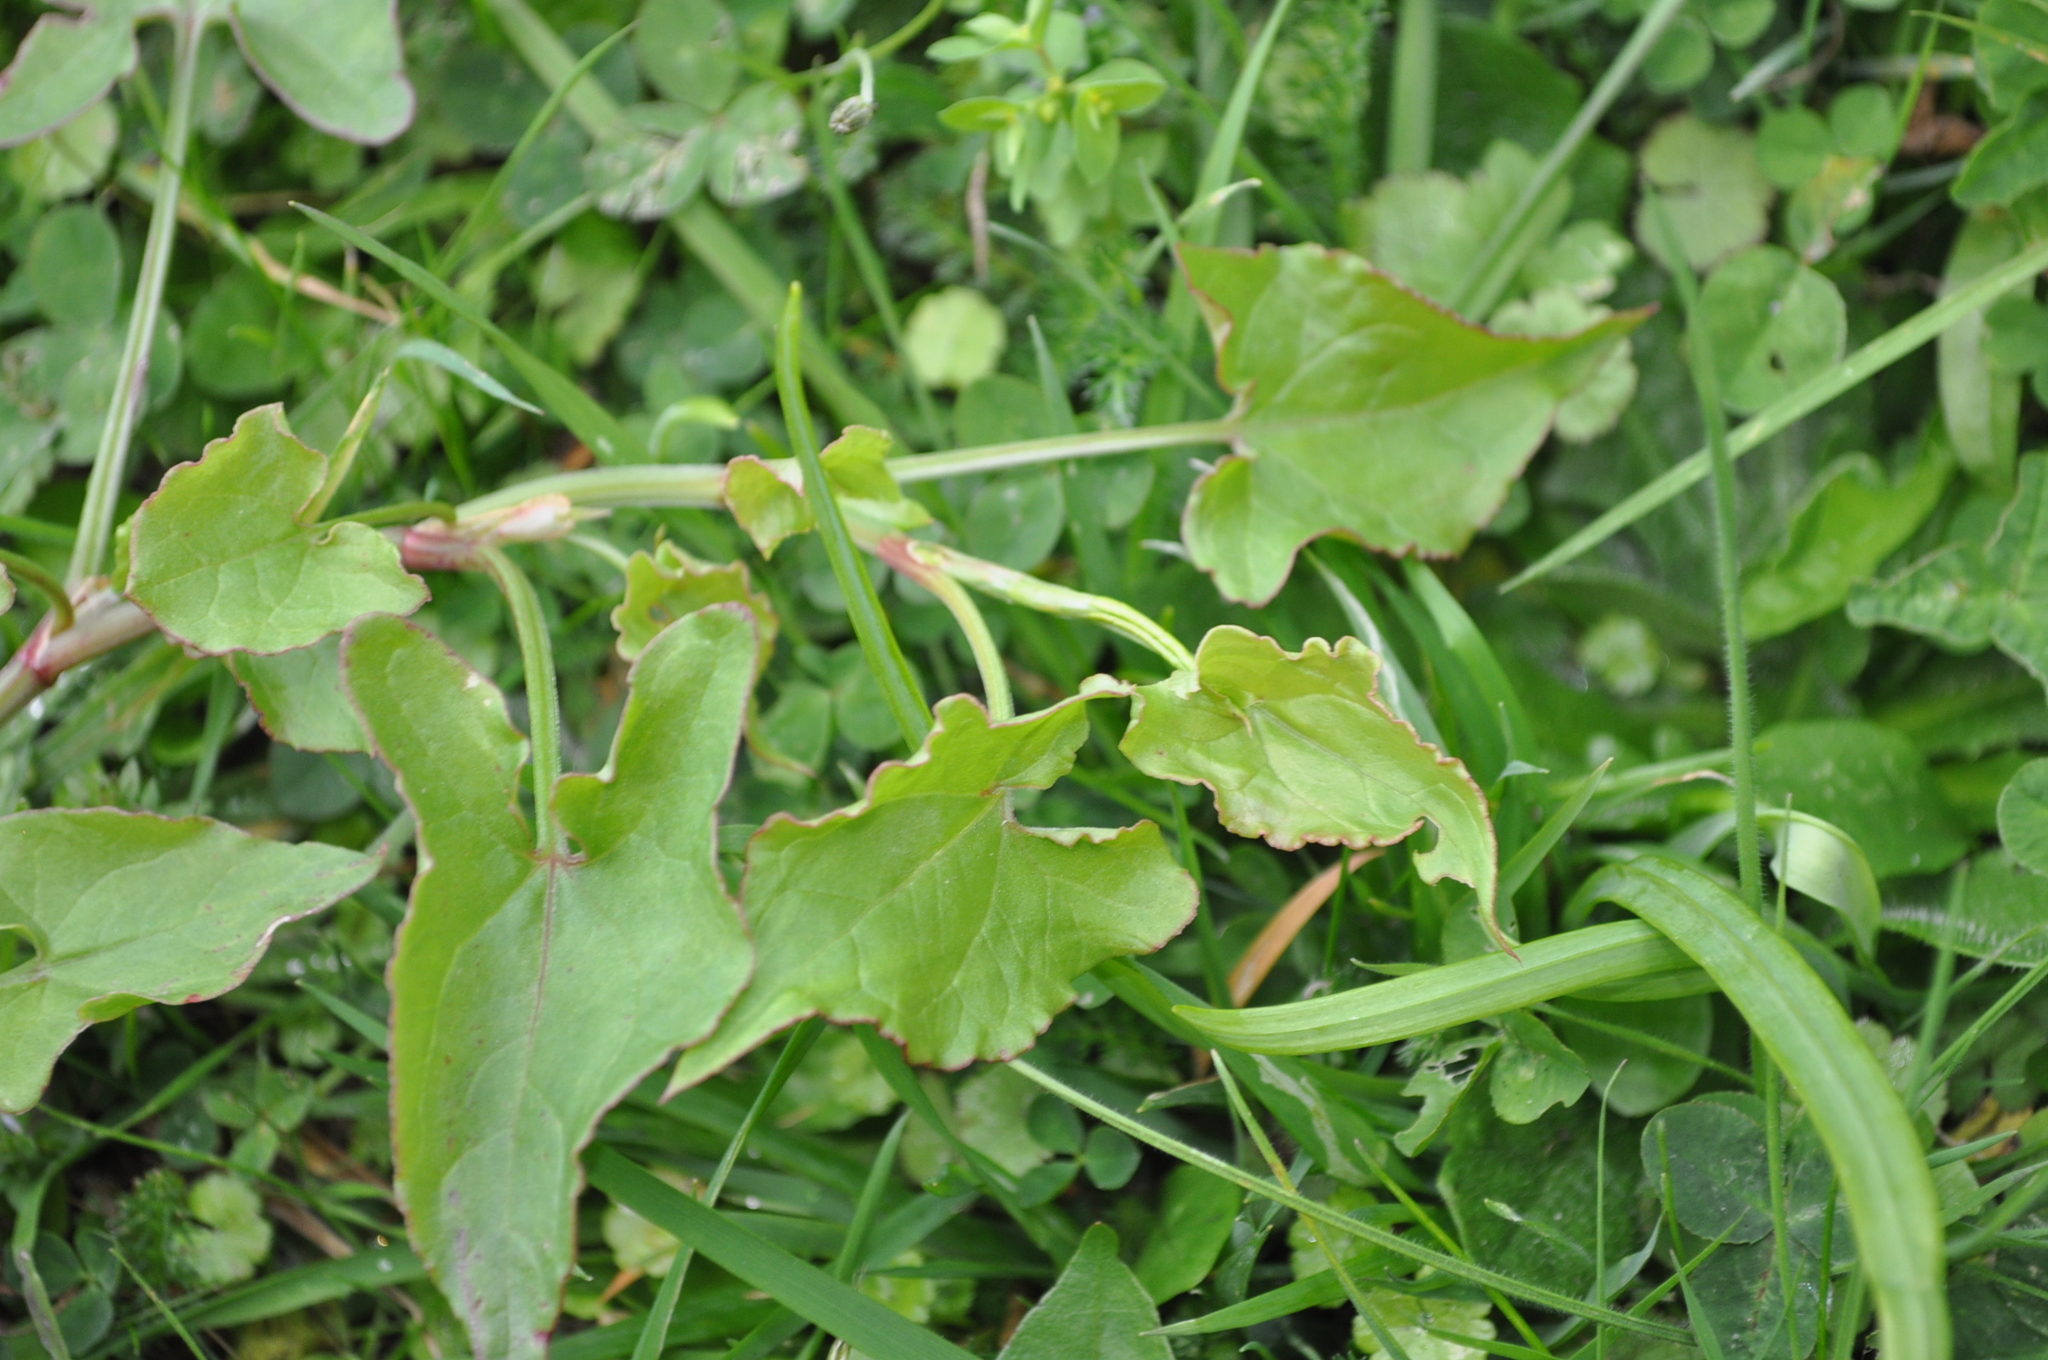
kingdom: Plantae
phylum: Tracheophyta
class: Magnoliopsida
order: Caryophyllales
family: Polygonaceae
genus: Rumex
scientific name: Rumex sagittatus
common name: Climbing dock
